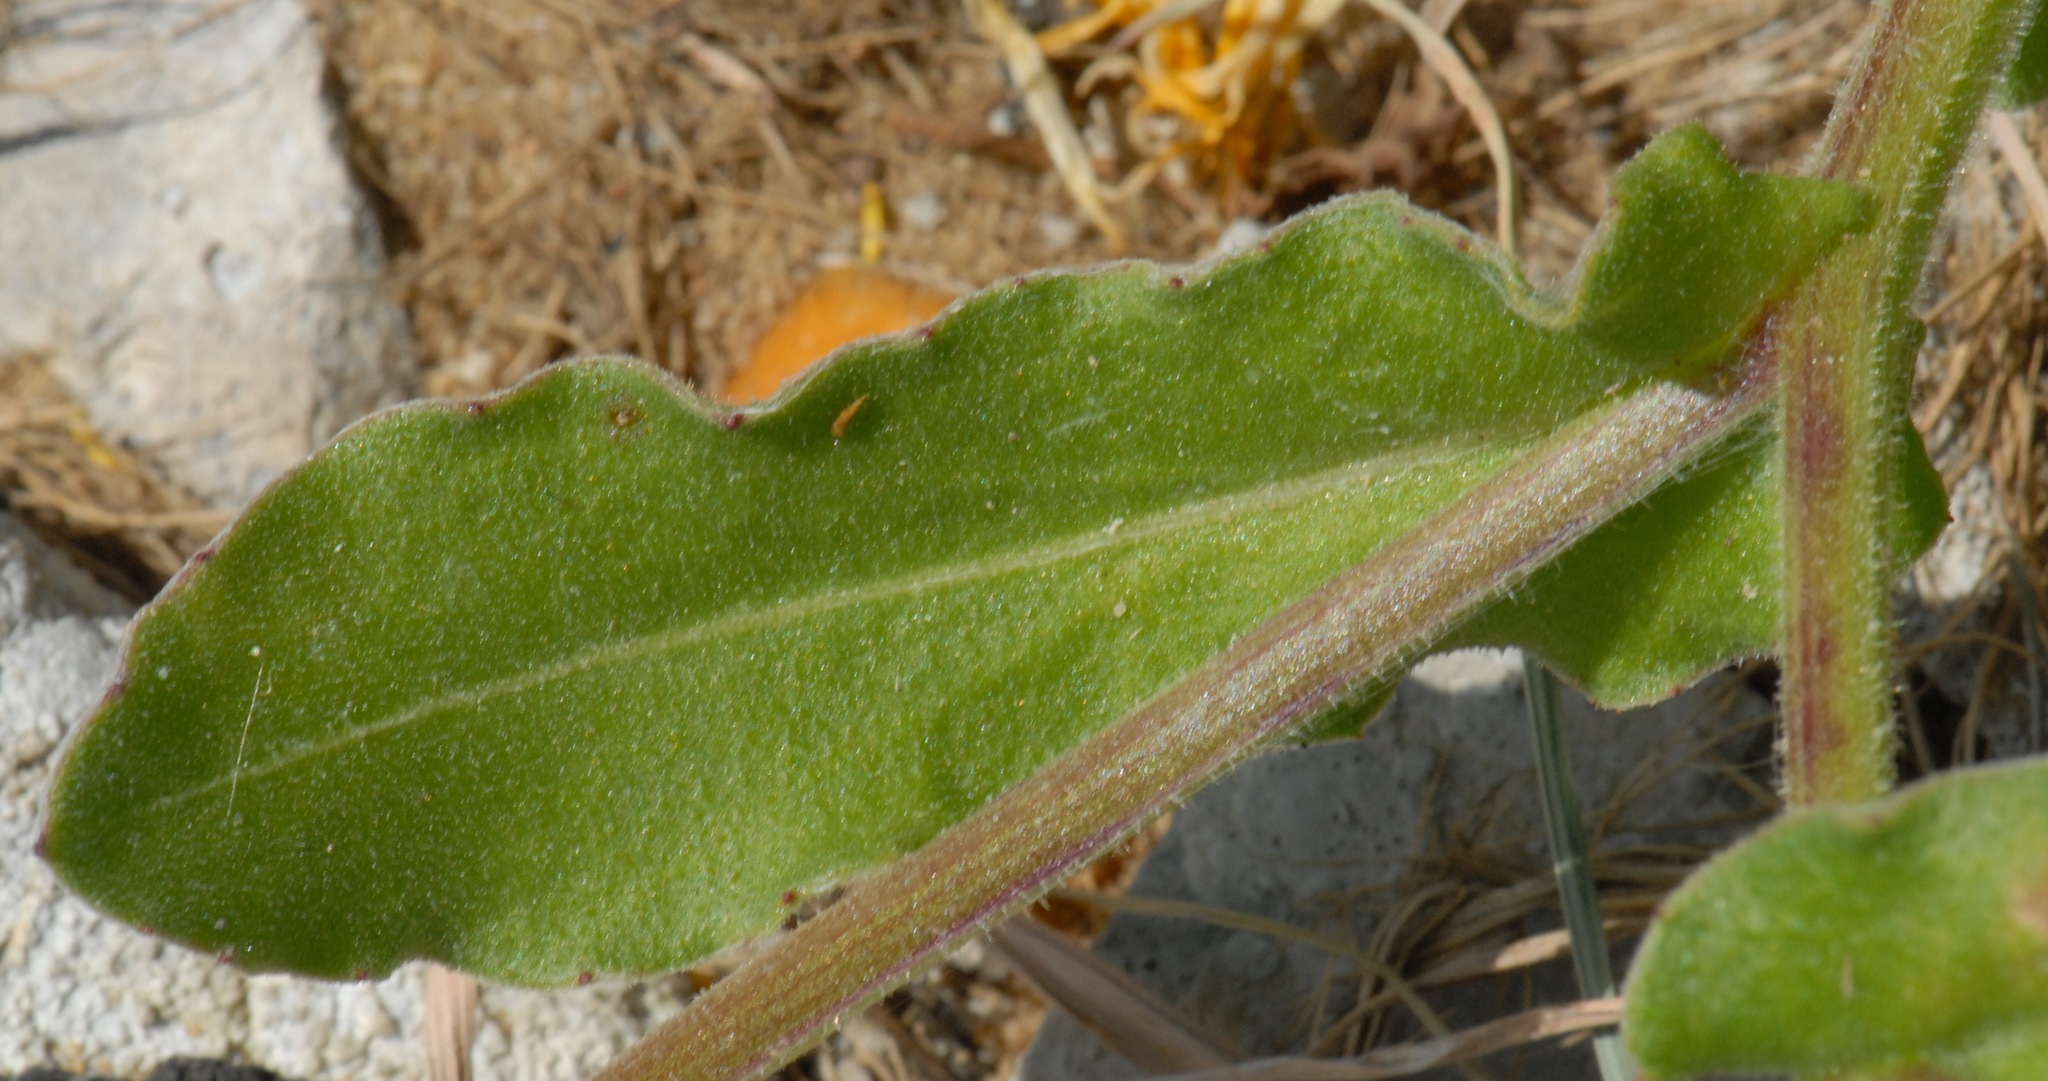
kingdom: Plantae
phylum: Tracheophyta
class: Magnoliopsida
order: Asterales
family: Asteraceae
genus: Calendula
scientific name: Calendula suffruticosa
